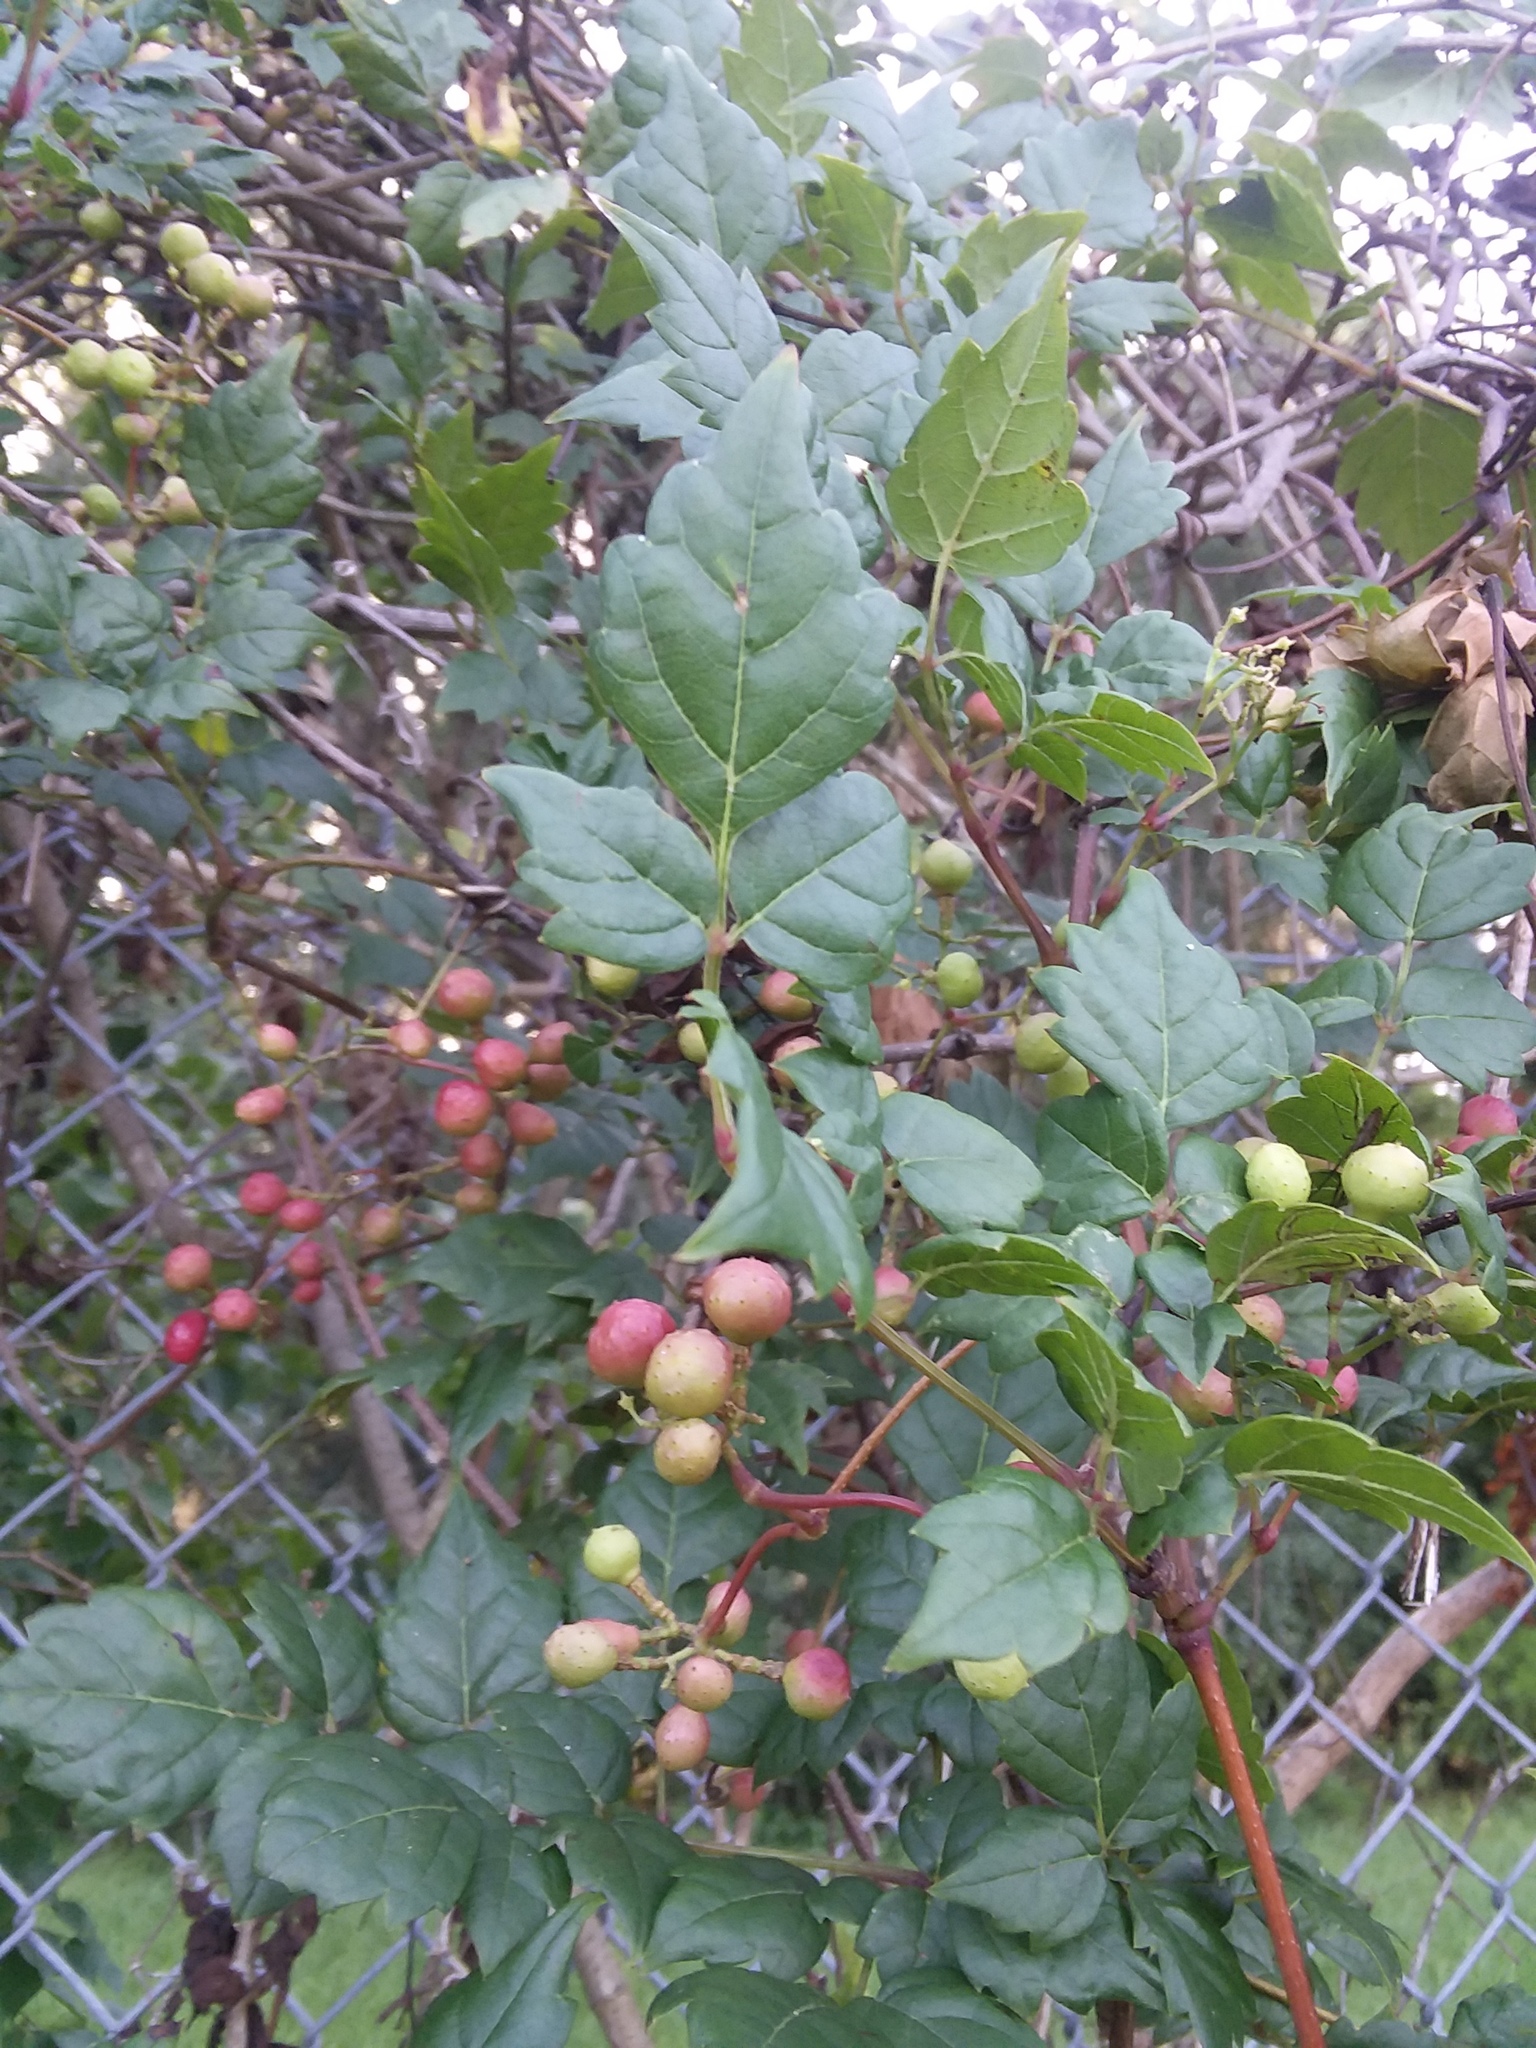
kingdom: Plantae
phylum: Tracheophyta
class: Magnoliopsida
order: Vitales
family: Vitaceae
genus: Nekemias
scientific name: Nekemias arborea
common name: Peppervine
